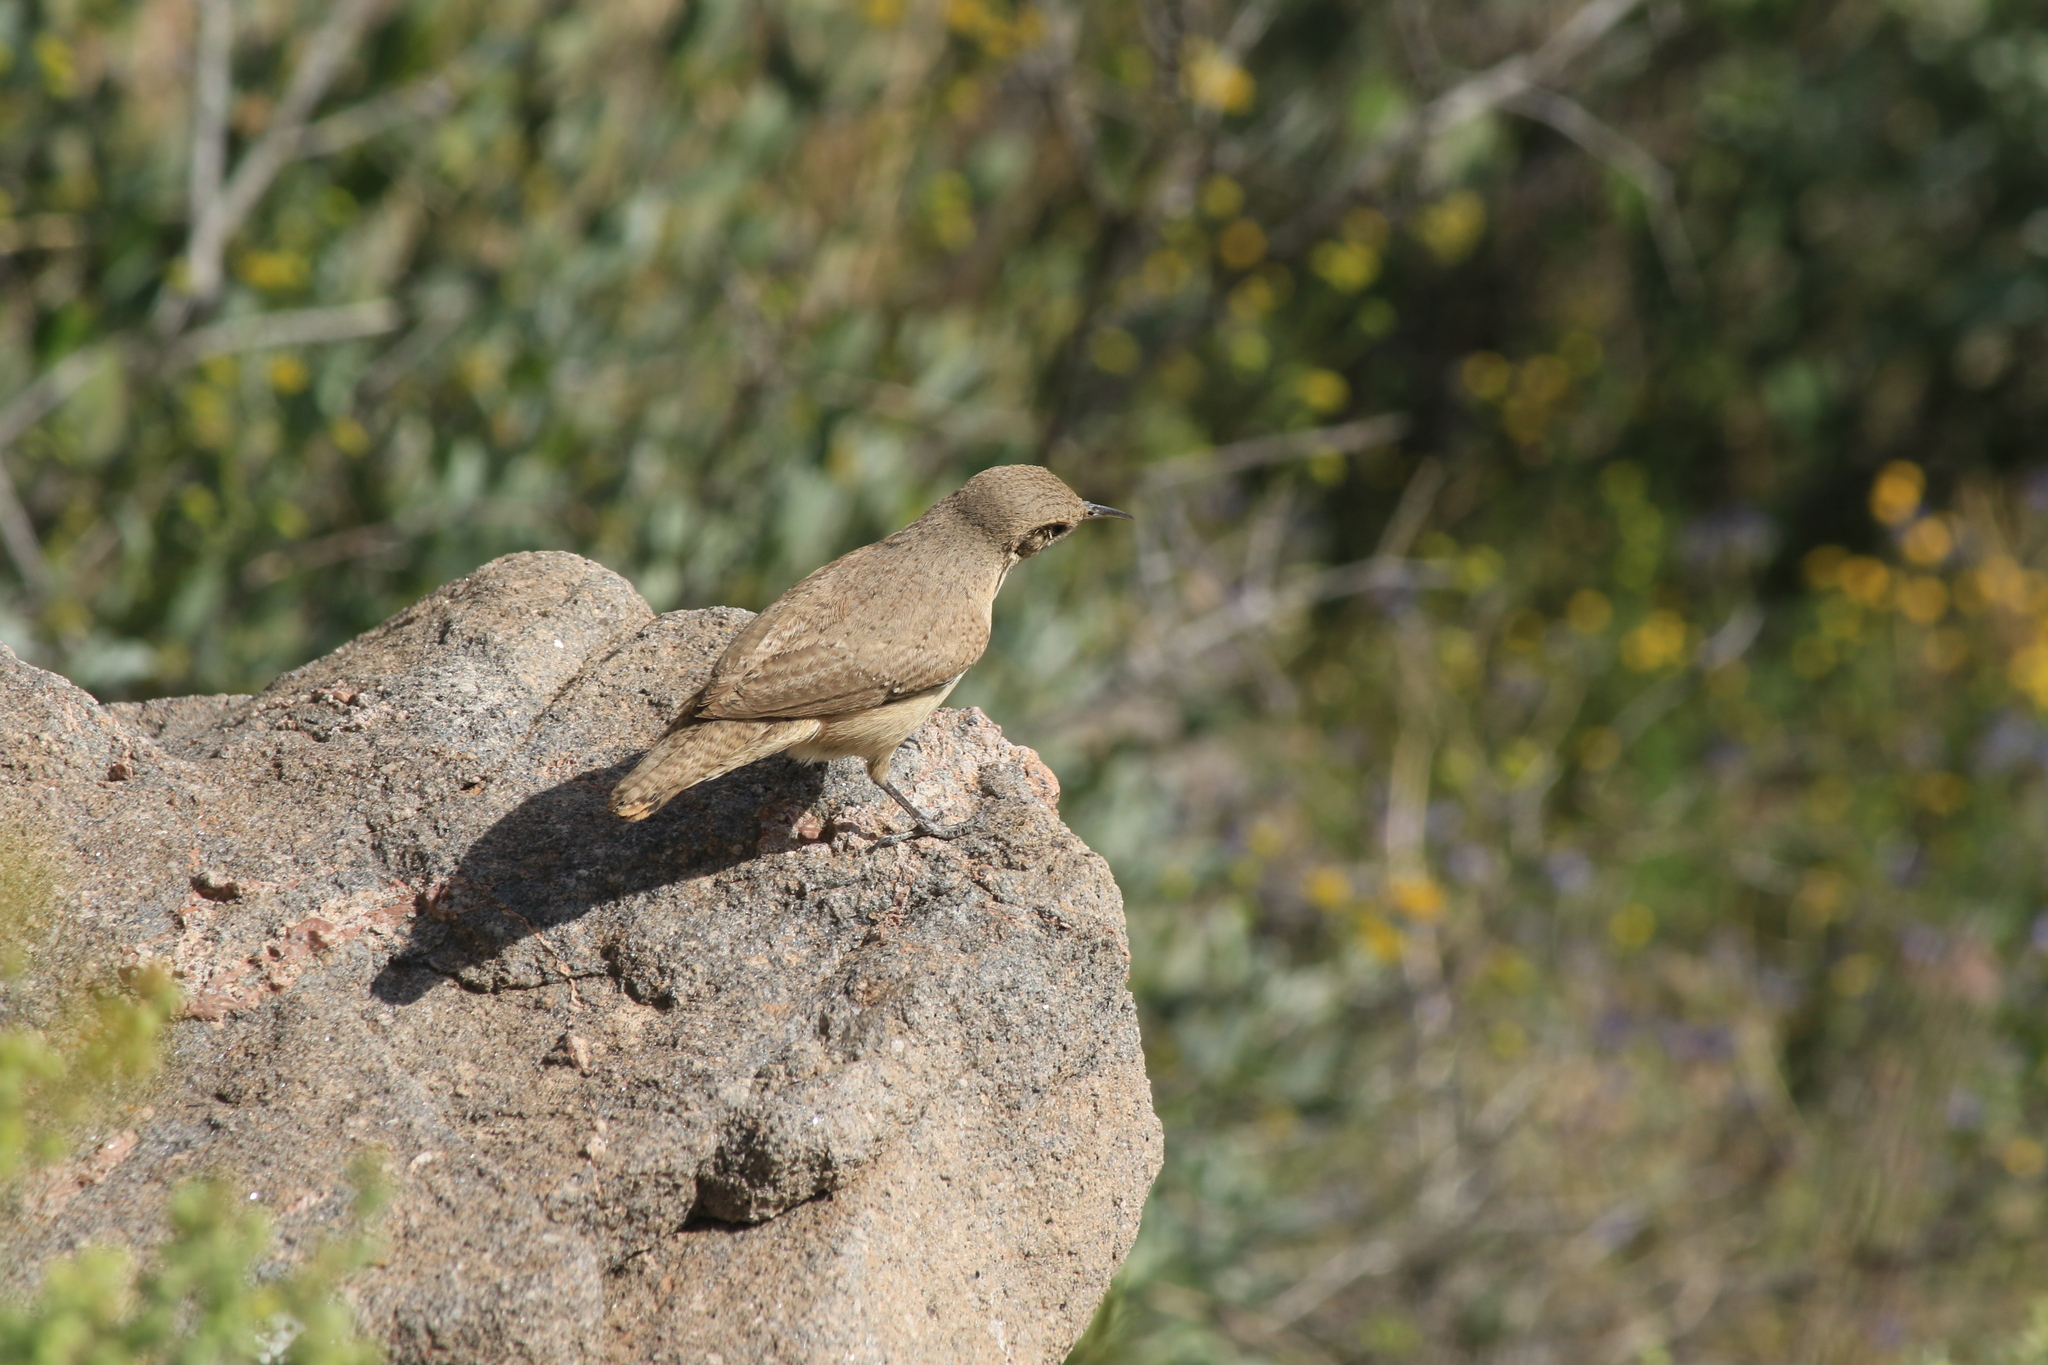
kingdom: Animalia
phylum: Chordata
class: Aves
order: Passeriformes
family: Troglodytidae
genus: Salpinctes
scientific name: Salpinctes obsoletus
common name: Rock wren
